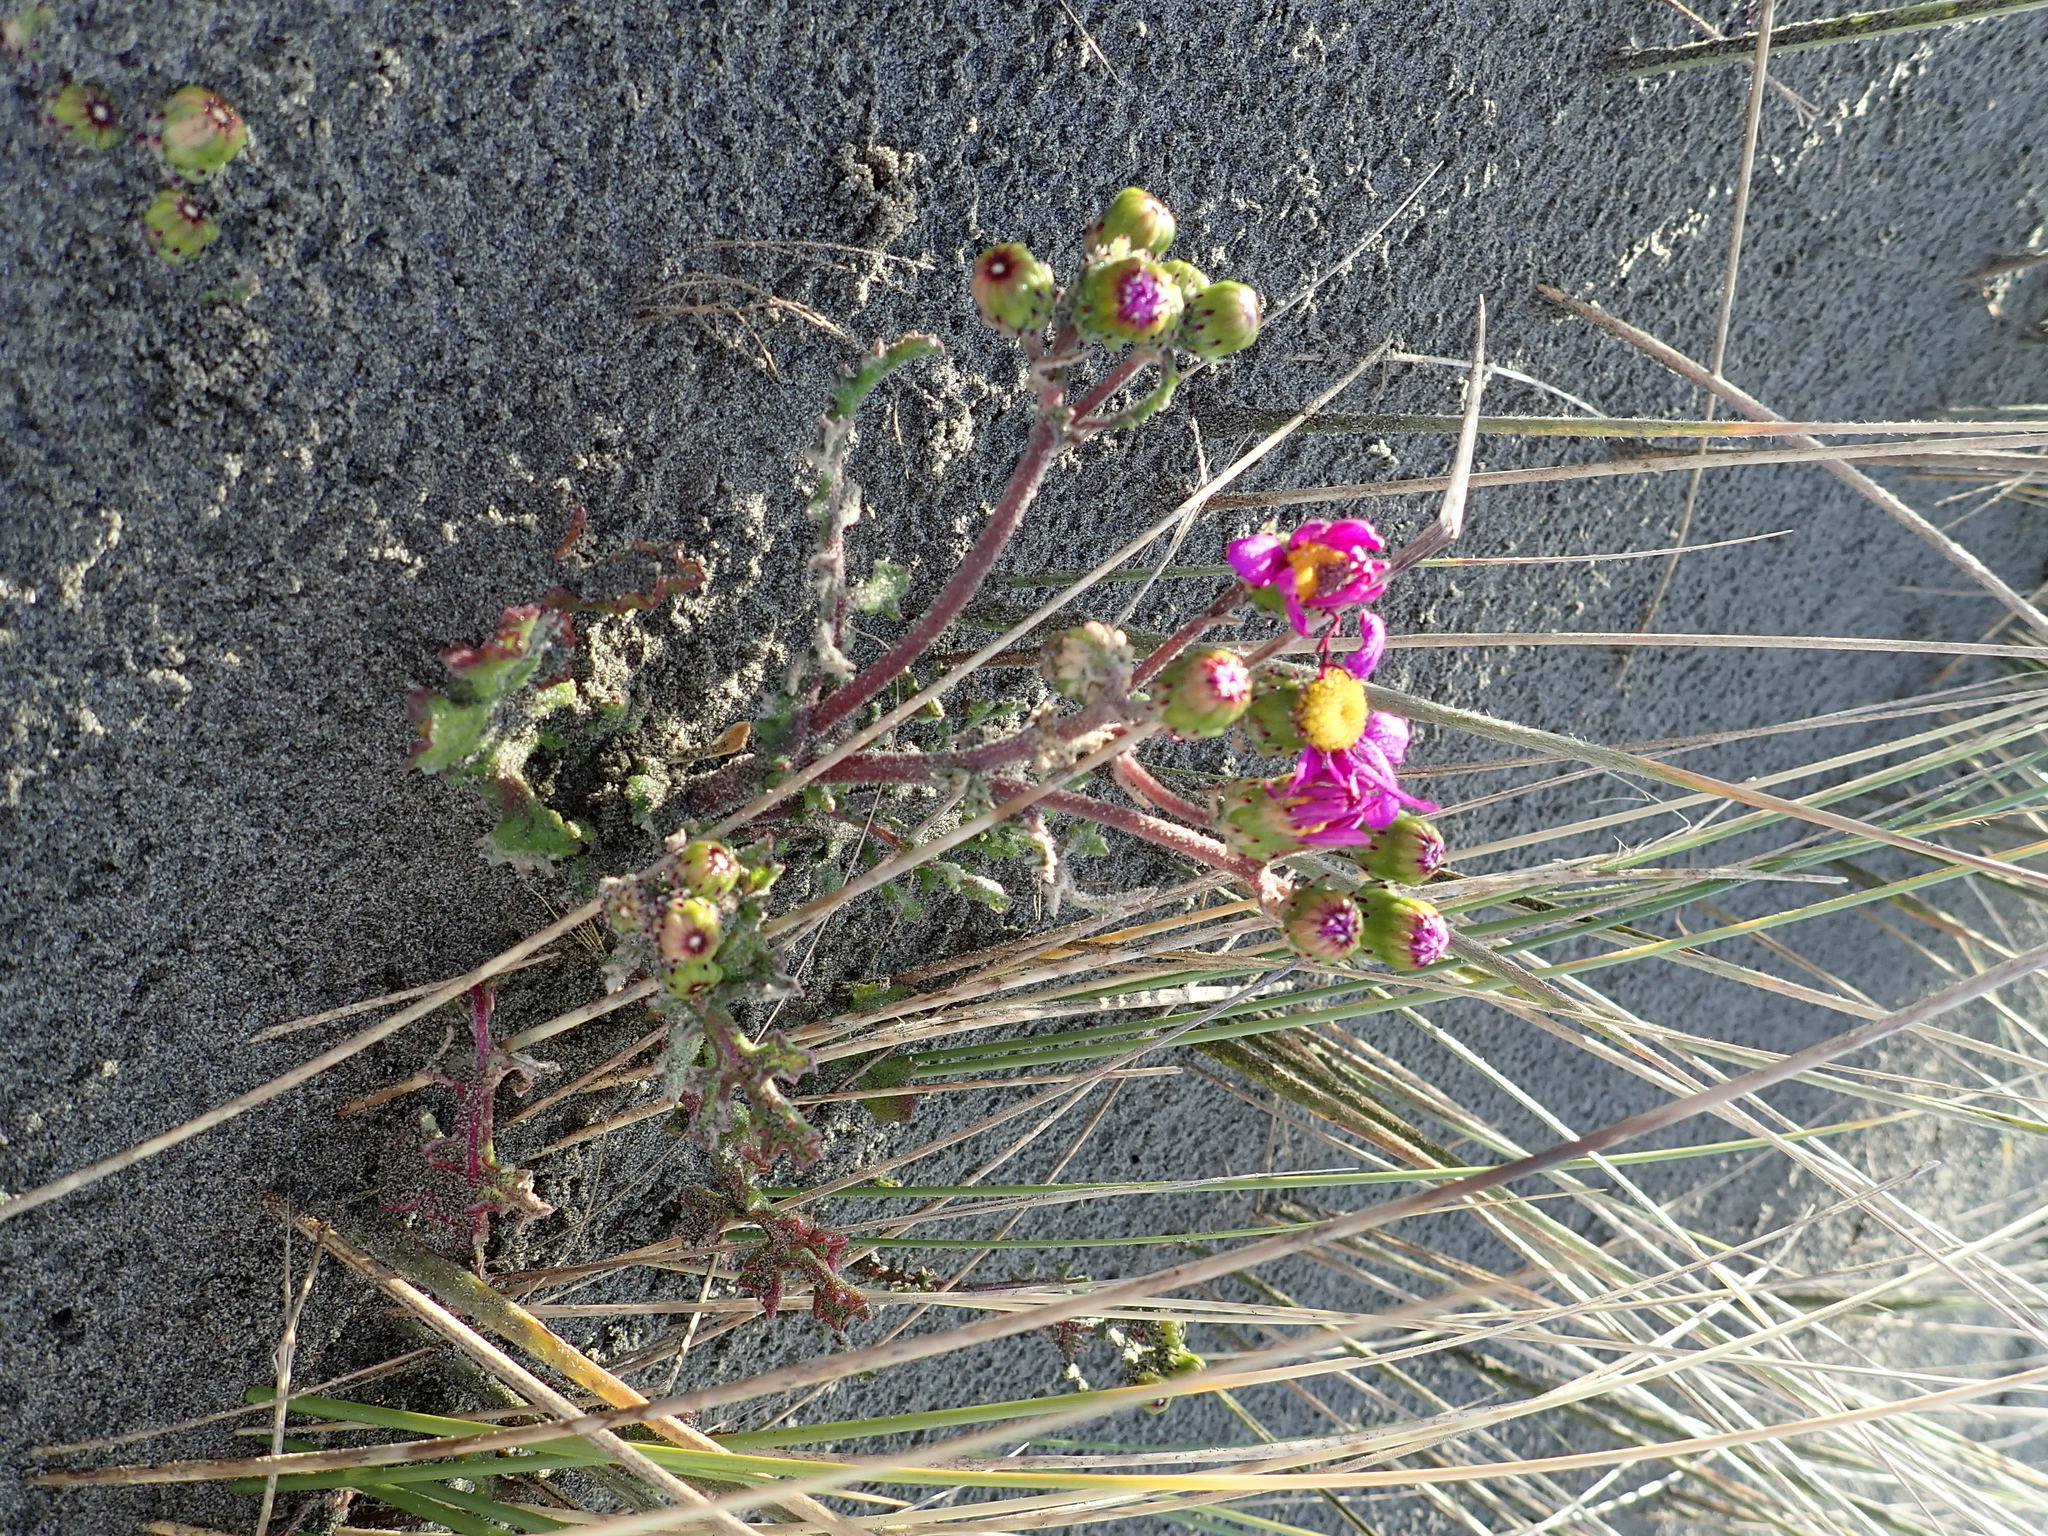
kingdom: Plantae
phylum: Tracheophyta
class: Magnoliopsida
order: Asterales
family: Asteraceae
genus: Senecio
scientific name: Senecio elegans
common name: Purple groundsel
